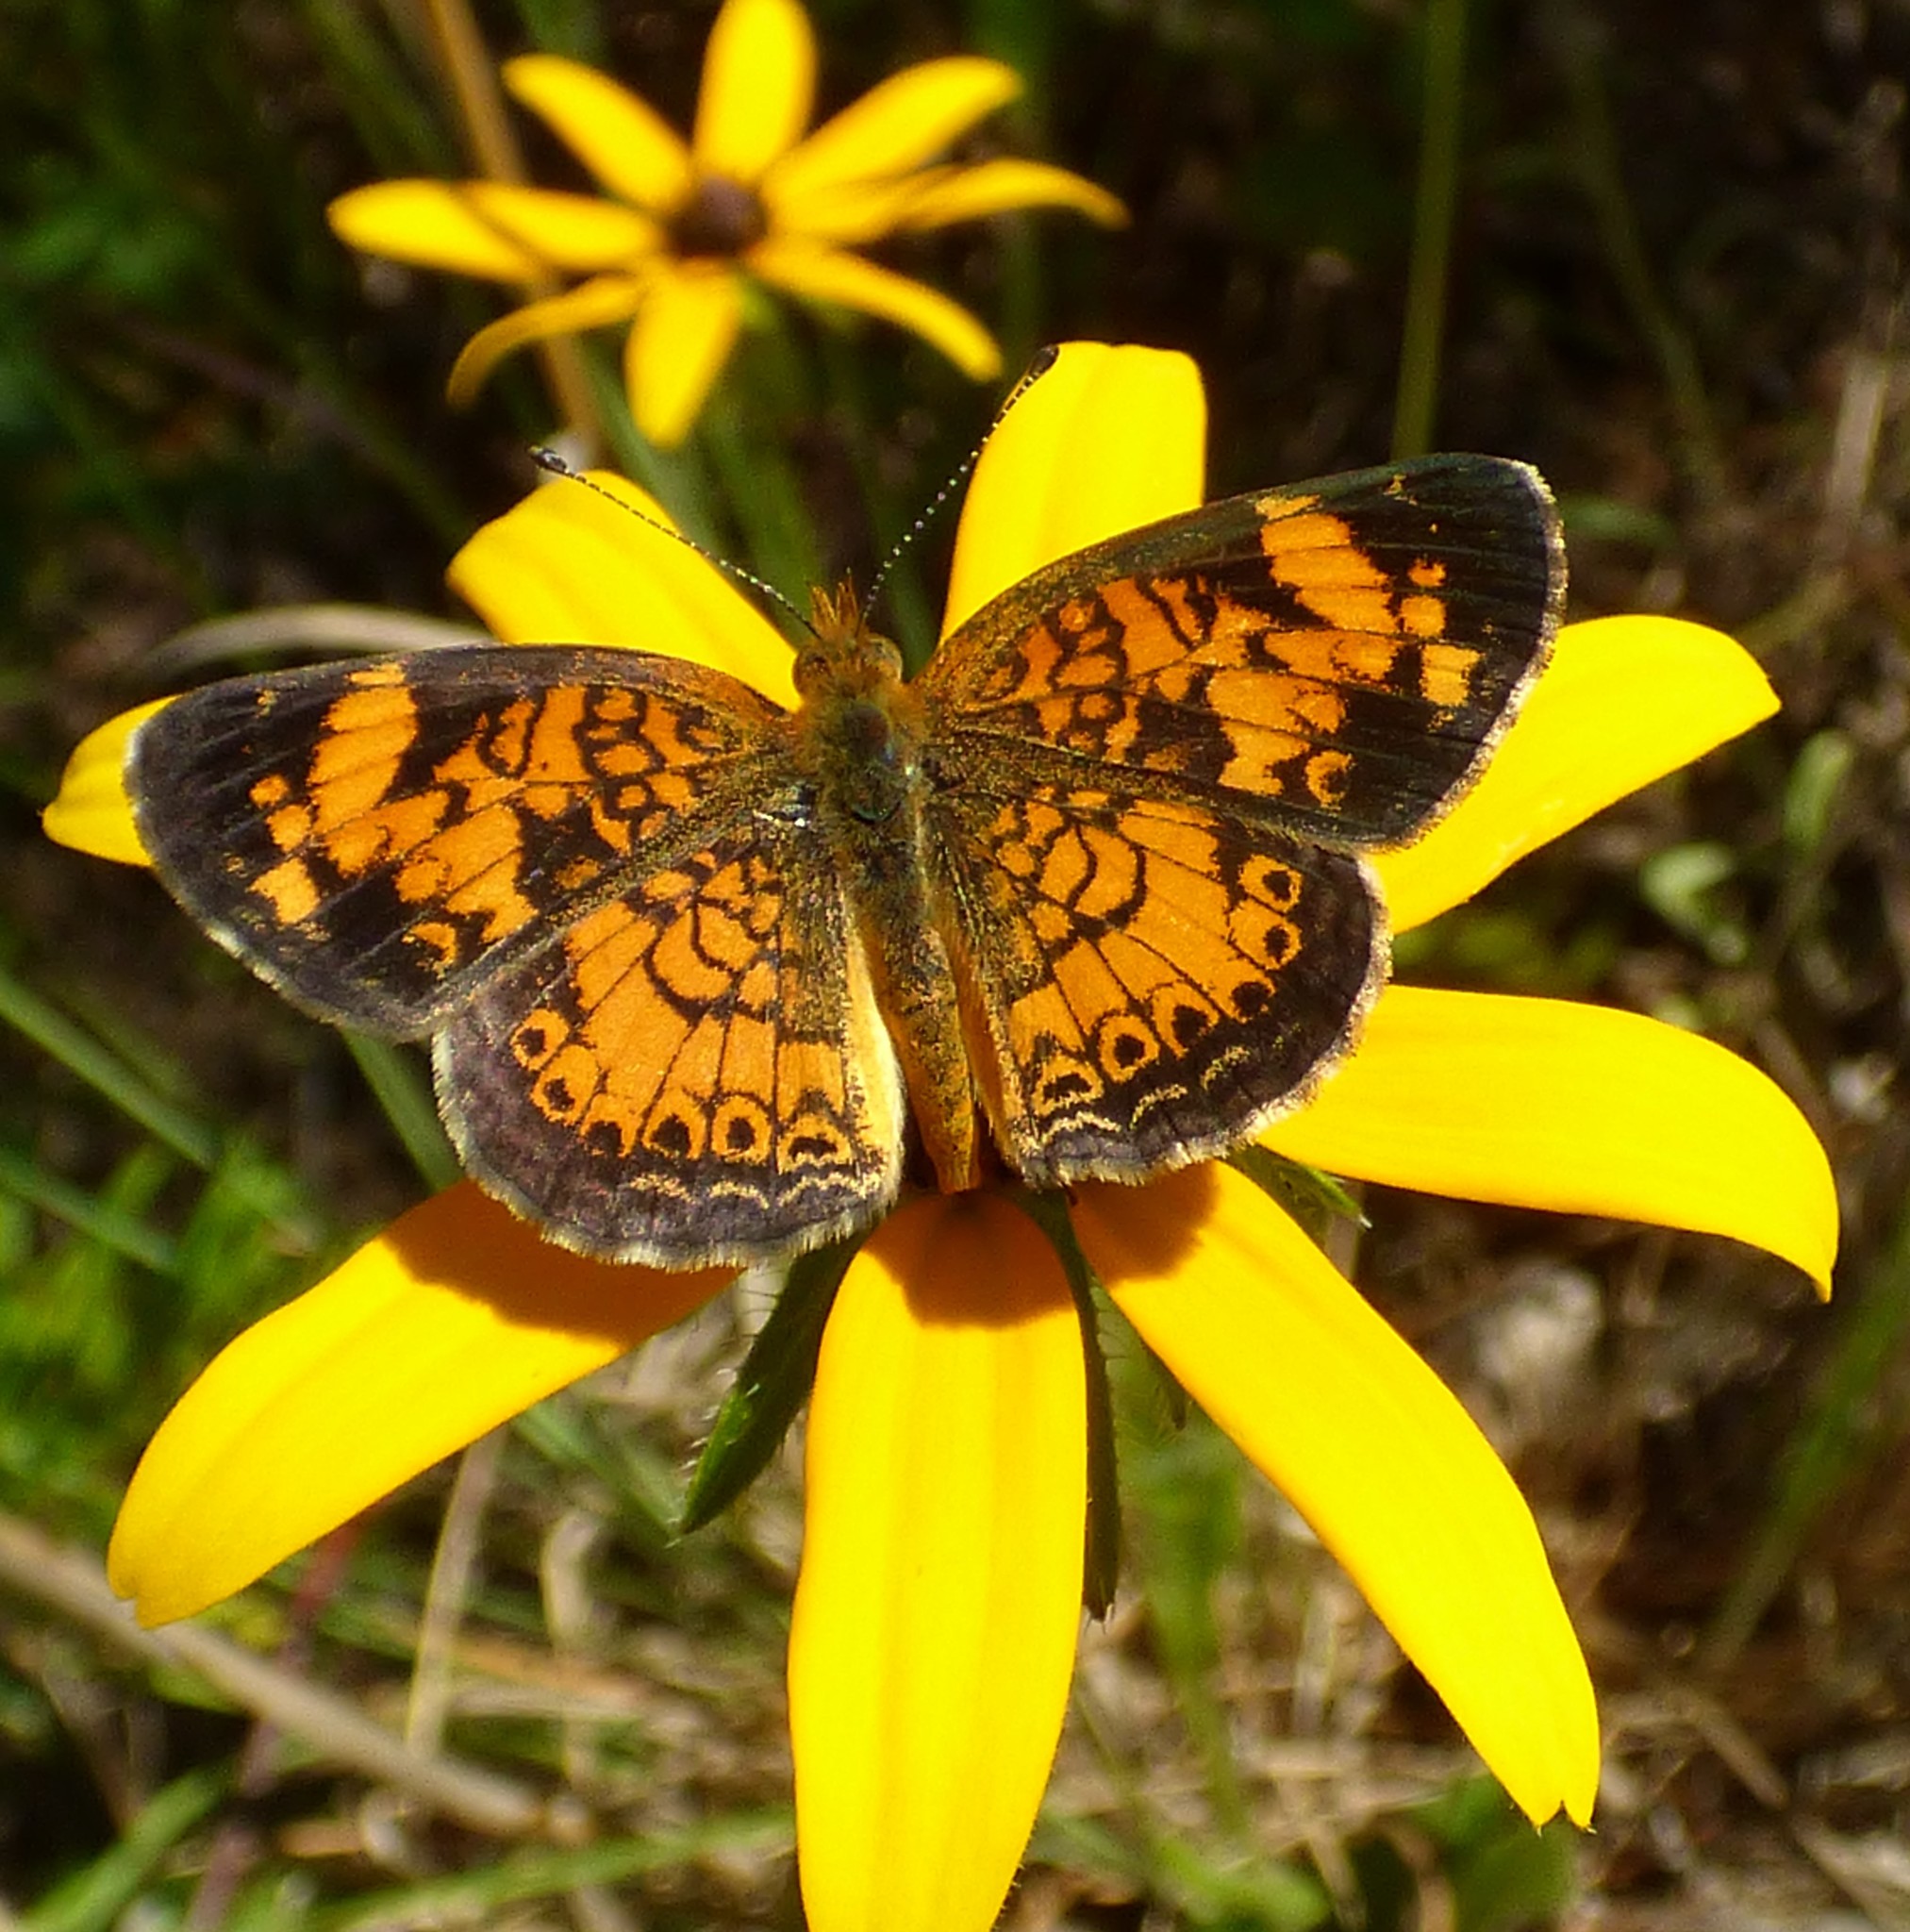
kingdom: Animalia
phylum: Arthropoda
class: Insecta
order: Lepidoptera
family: Nymphalidae
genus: Phyciodes
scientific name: Phyciodes tharos
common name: Pearl crescent
